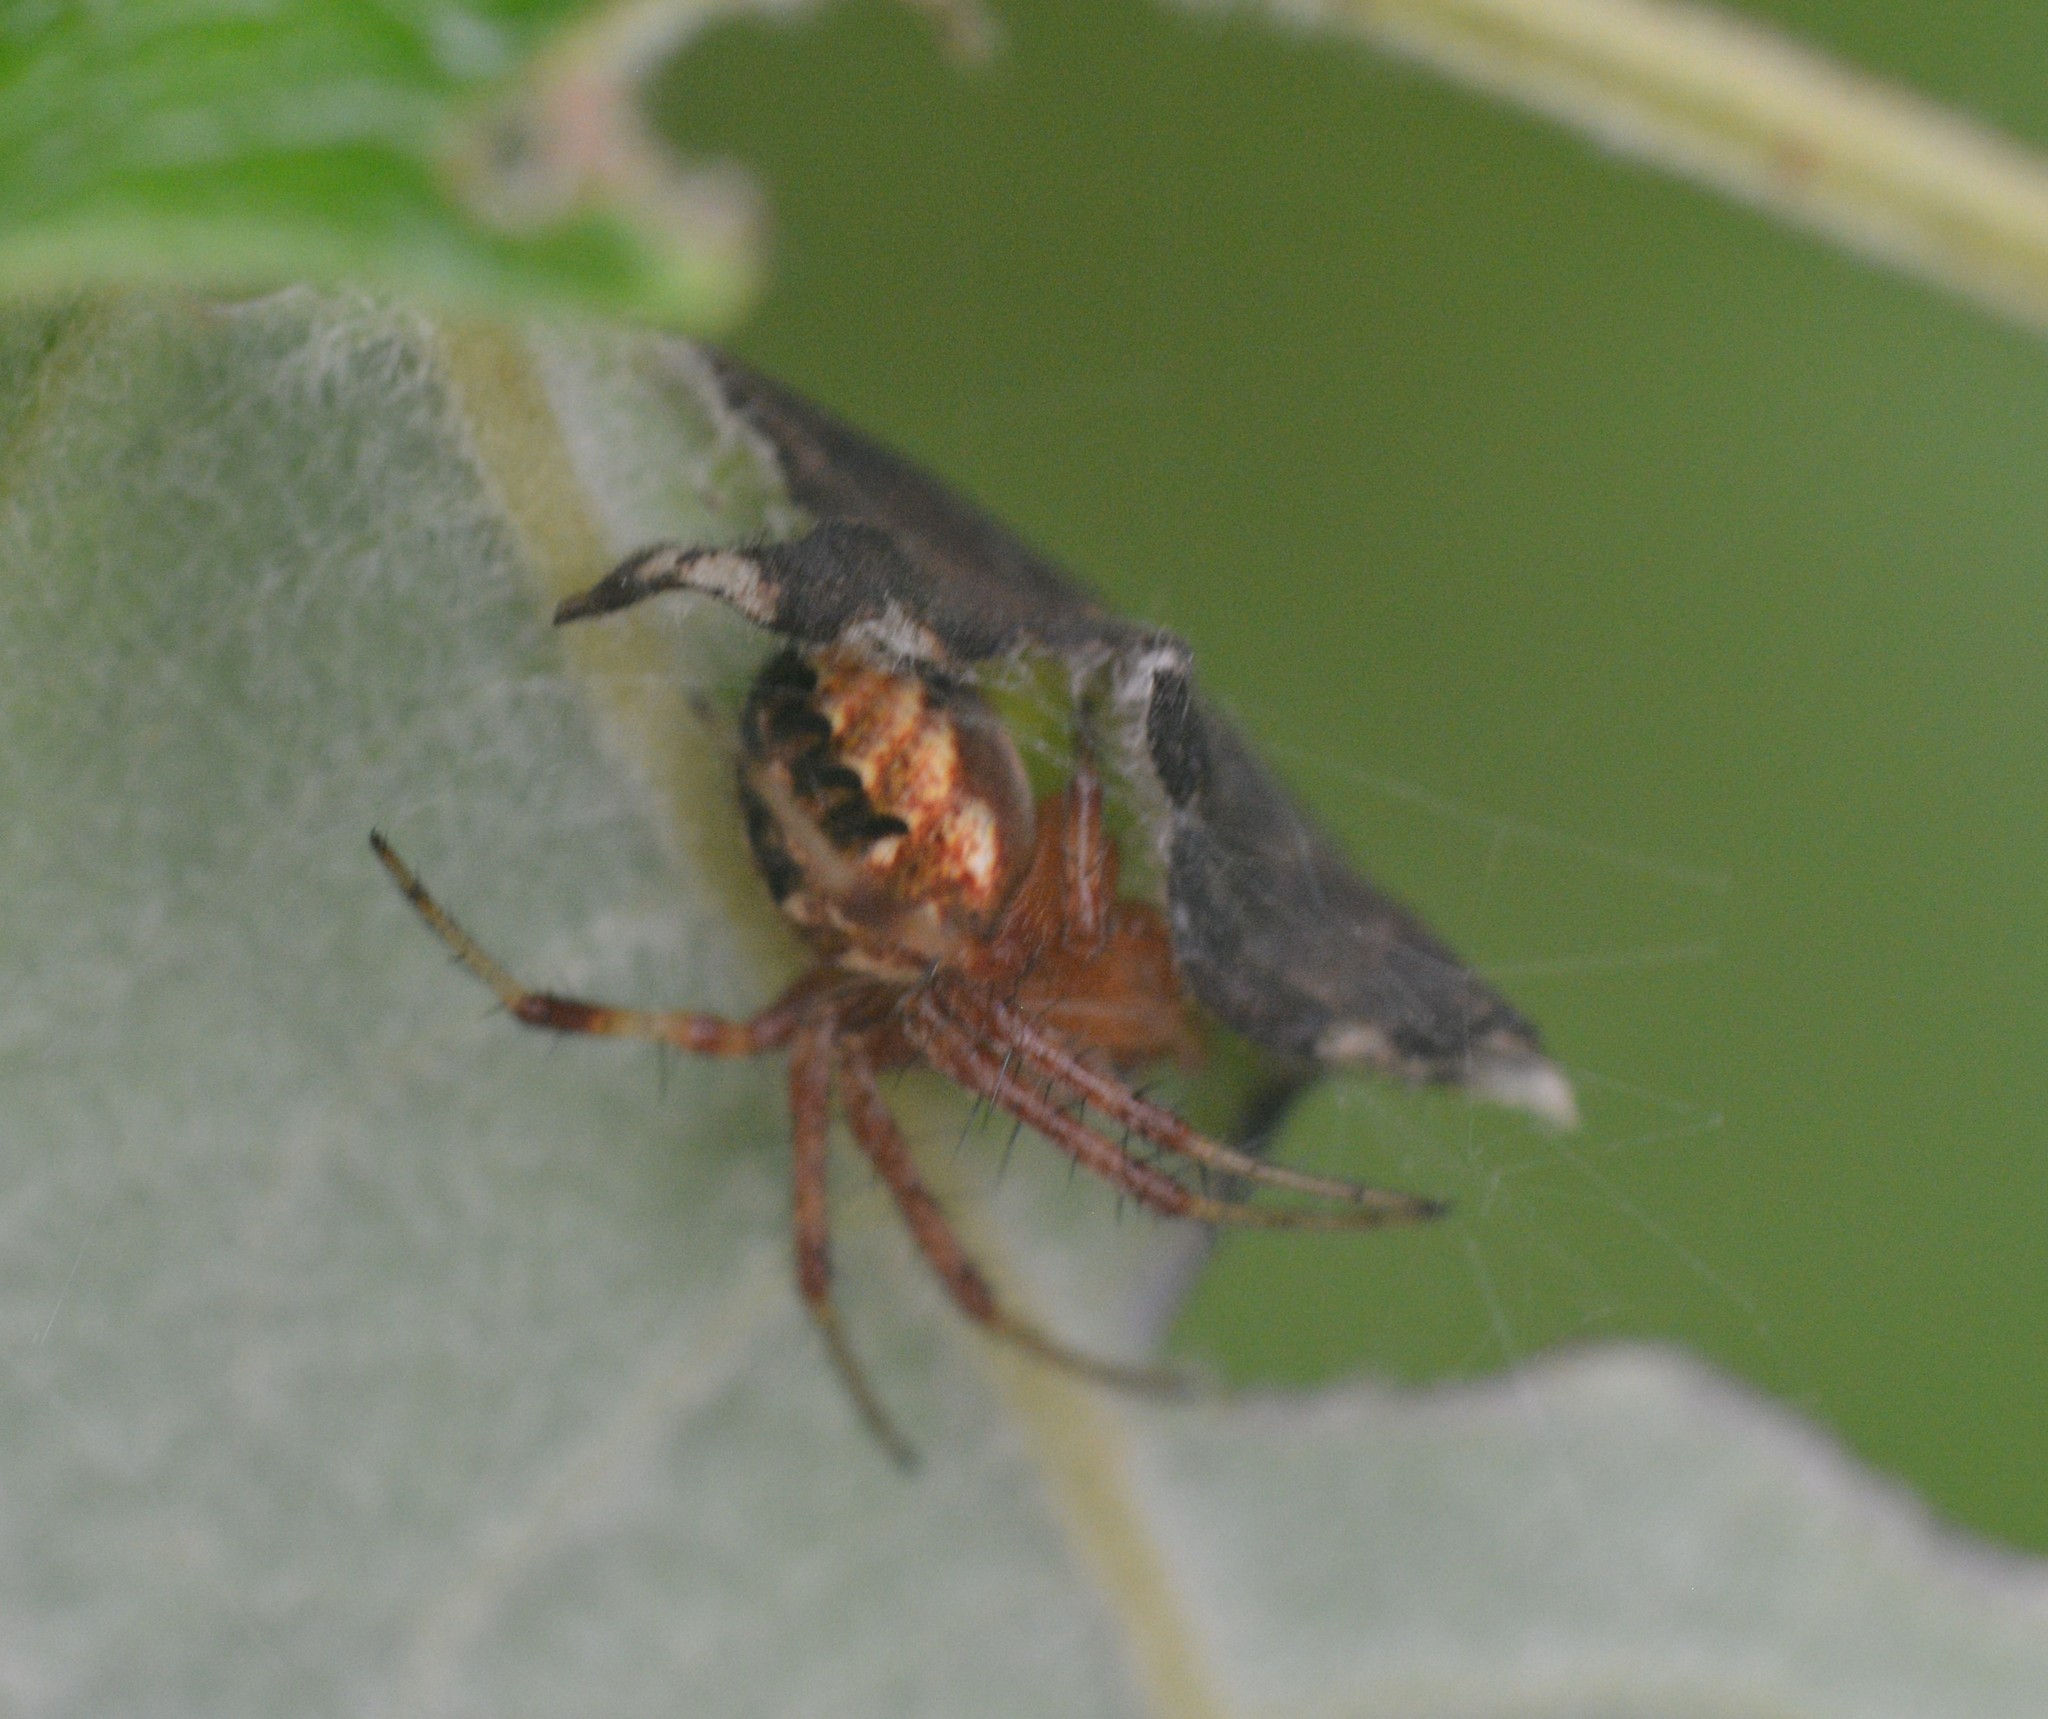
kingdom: Animalia
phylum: Arthropoda
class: Arachnida
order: Araneae
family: Araneidae
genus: Neoscona
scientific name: Neoscona arabesca
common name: Orb weavers
